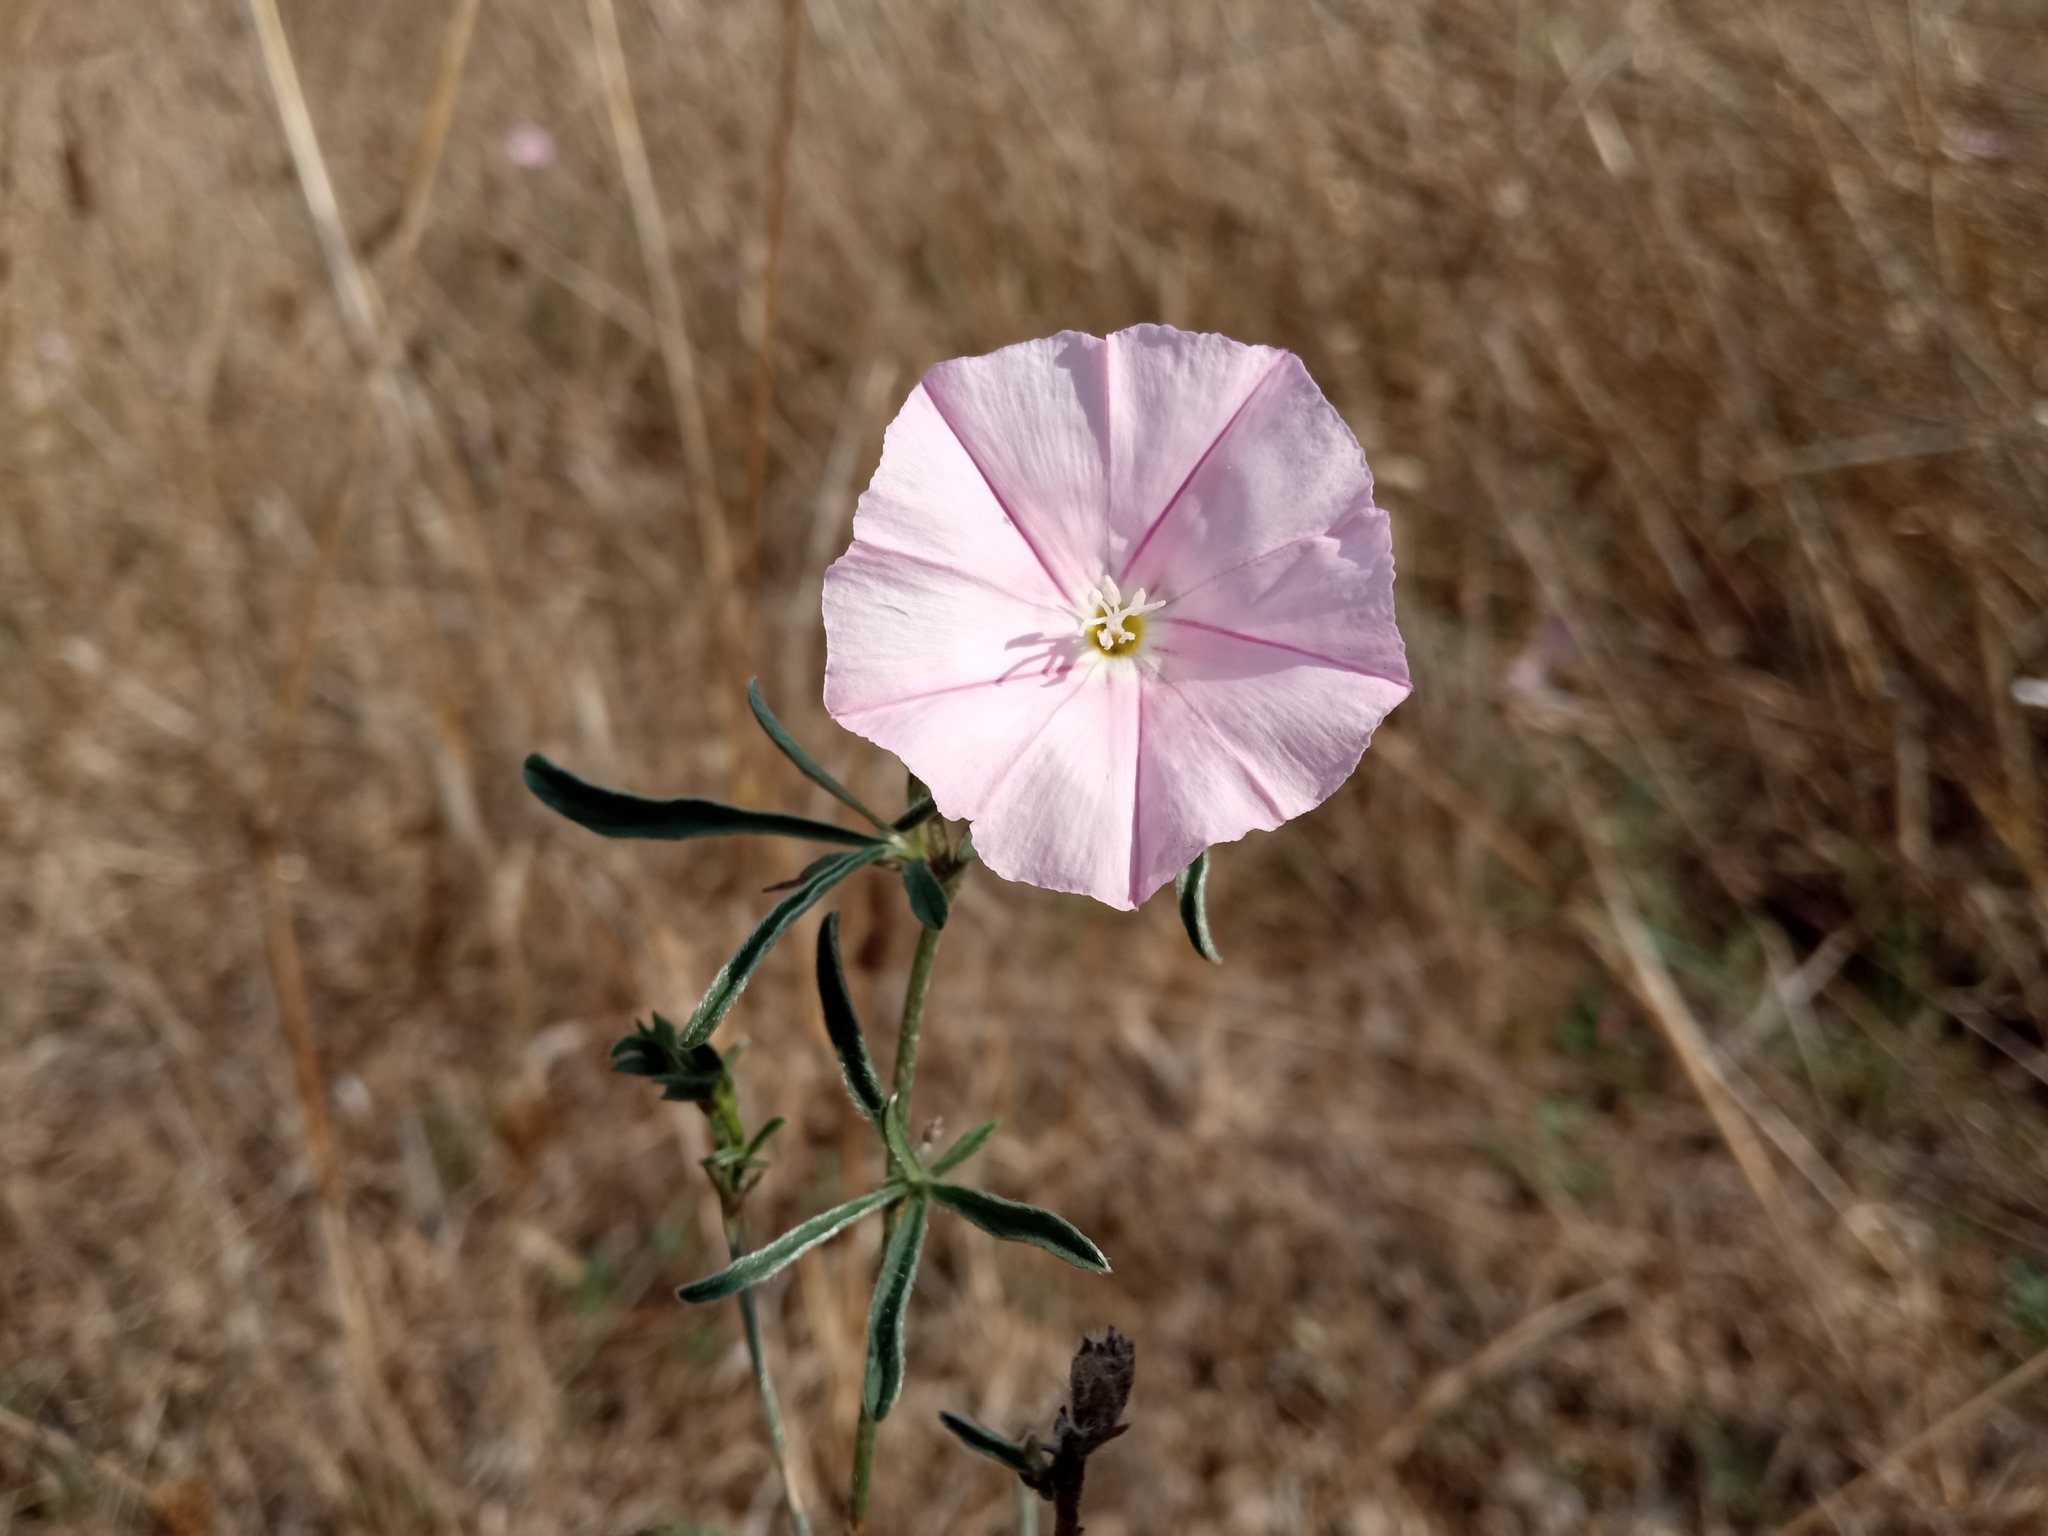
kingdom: Plantae
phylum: Tracheophyta
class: Magnoliopsida
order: Solanales
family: Convolvulaceae
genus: Convolvulus
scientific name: Convolvulus cantabrica
